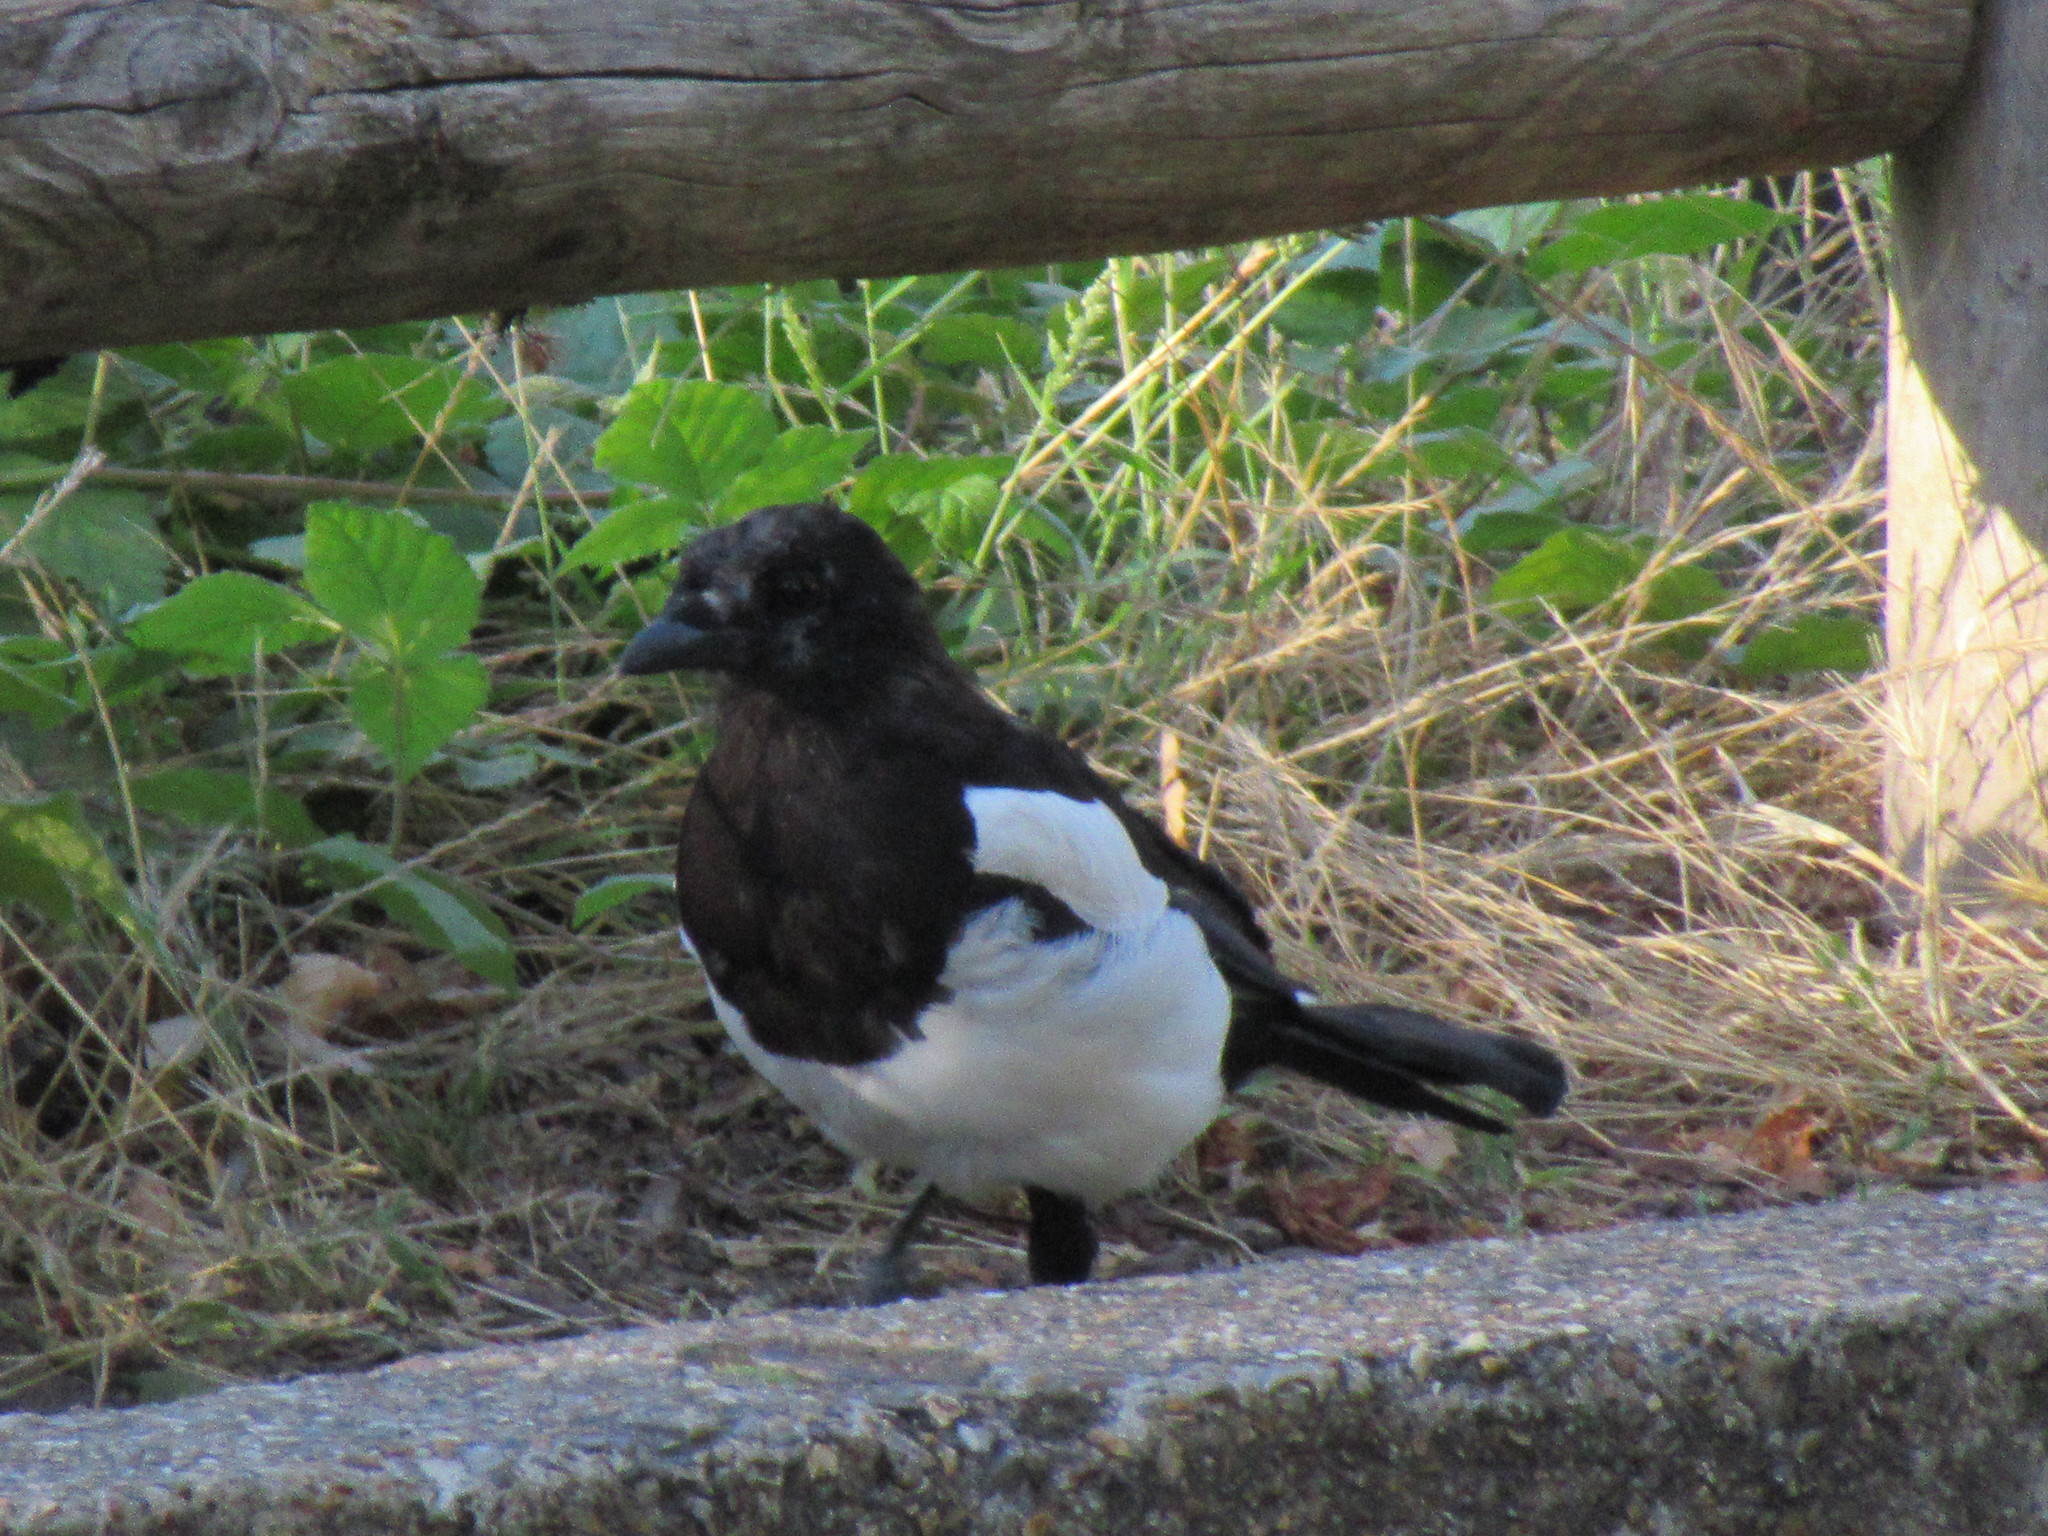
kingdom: Animalia
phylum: Chordata
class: Aves
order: Passeriformes
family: Corvidae
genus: Pica
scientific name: Pica pica
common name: Eurasian magpie
